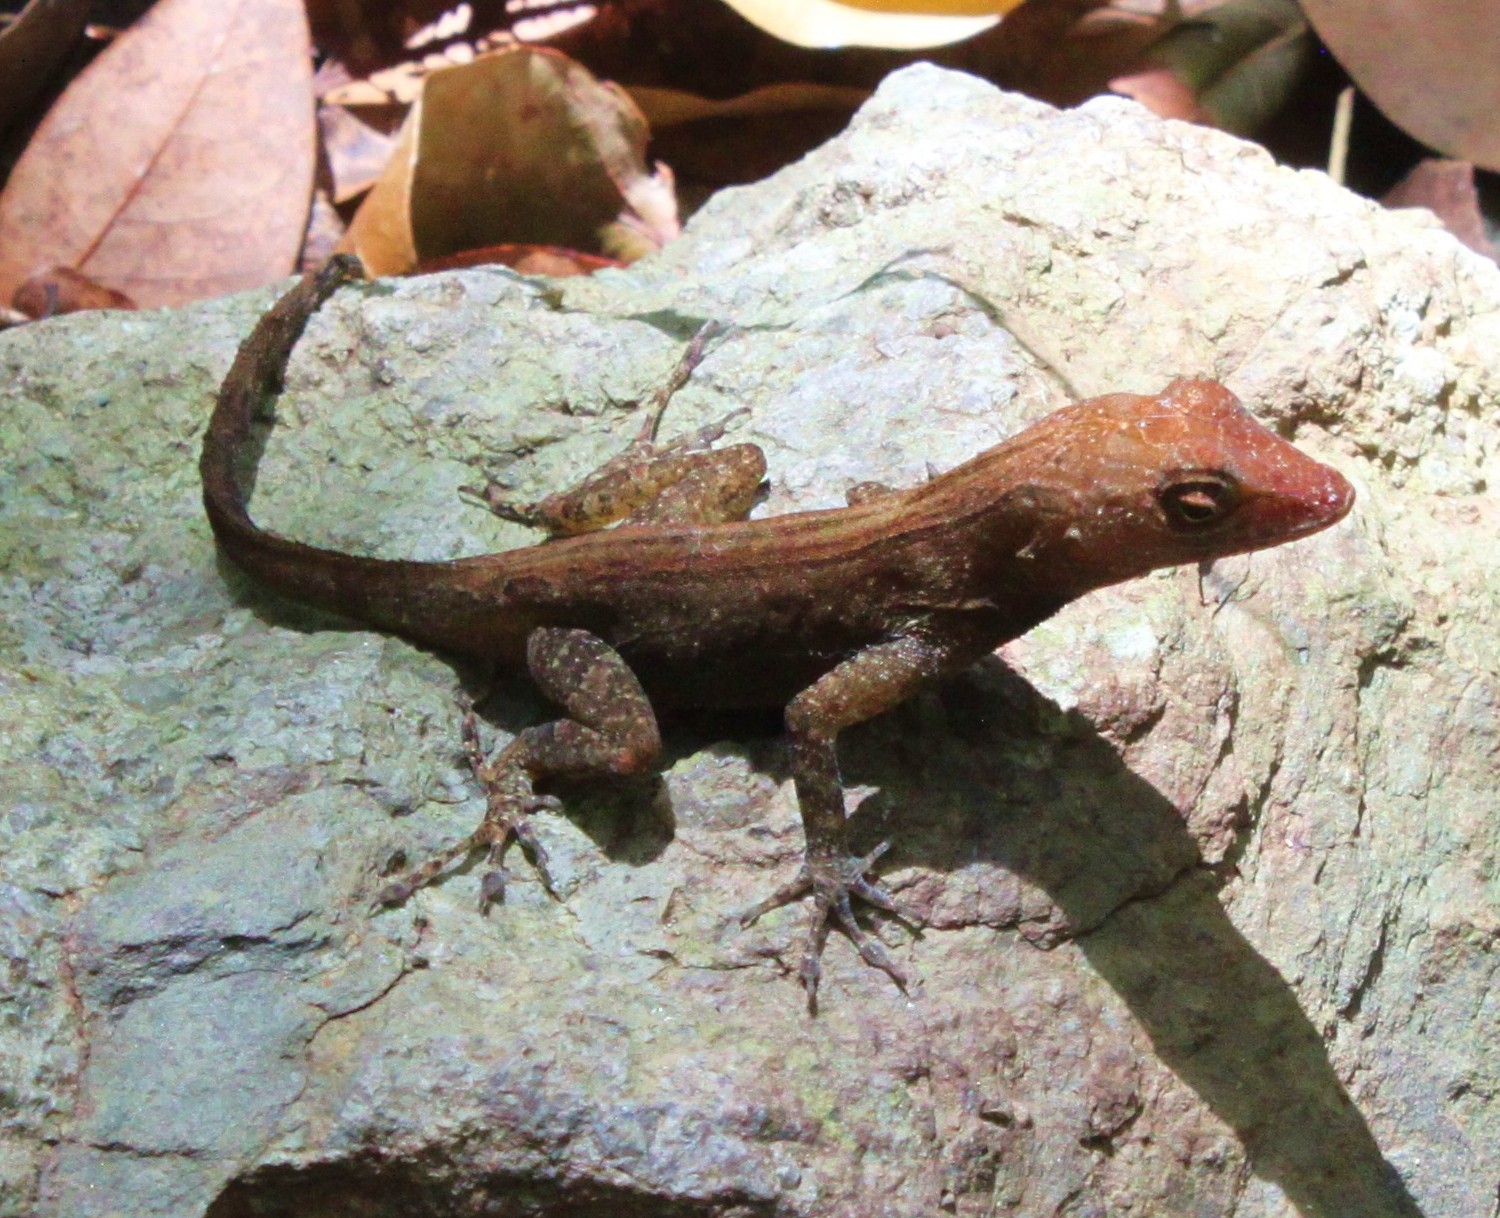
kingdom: Animalia
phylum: Chordata
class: Squamata
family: Dactyloidae
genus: Anolis
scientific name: Anolis cristatellus
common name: Crested anole
